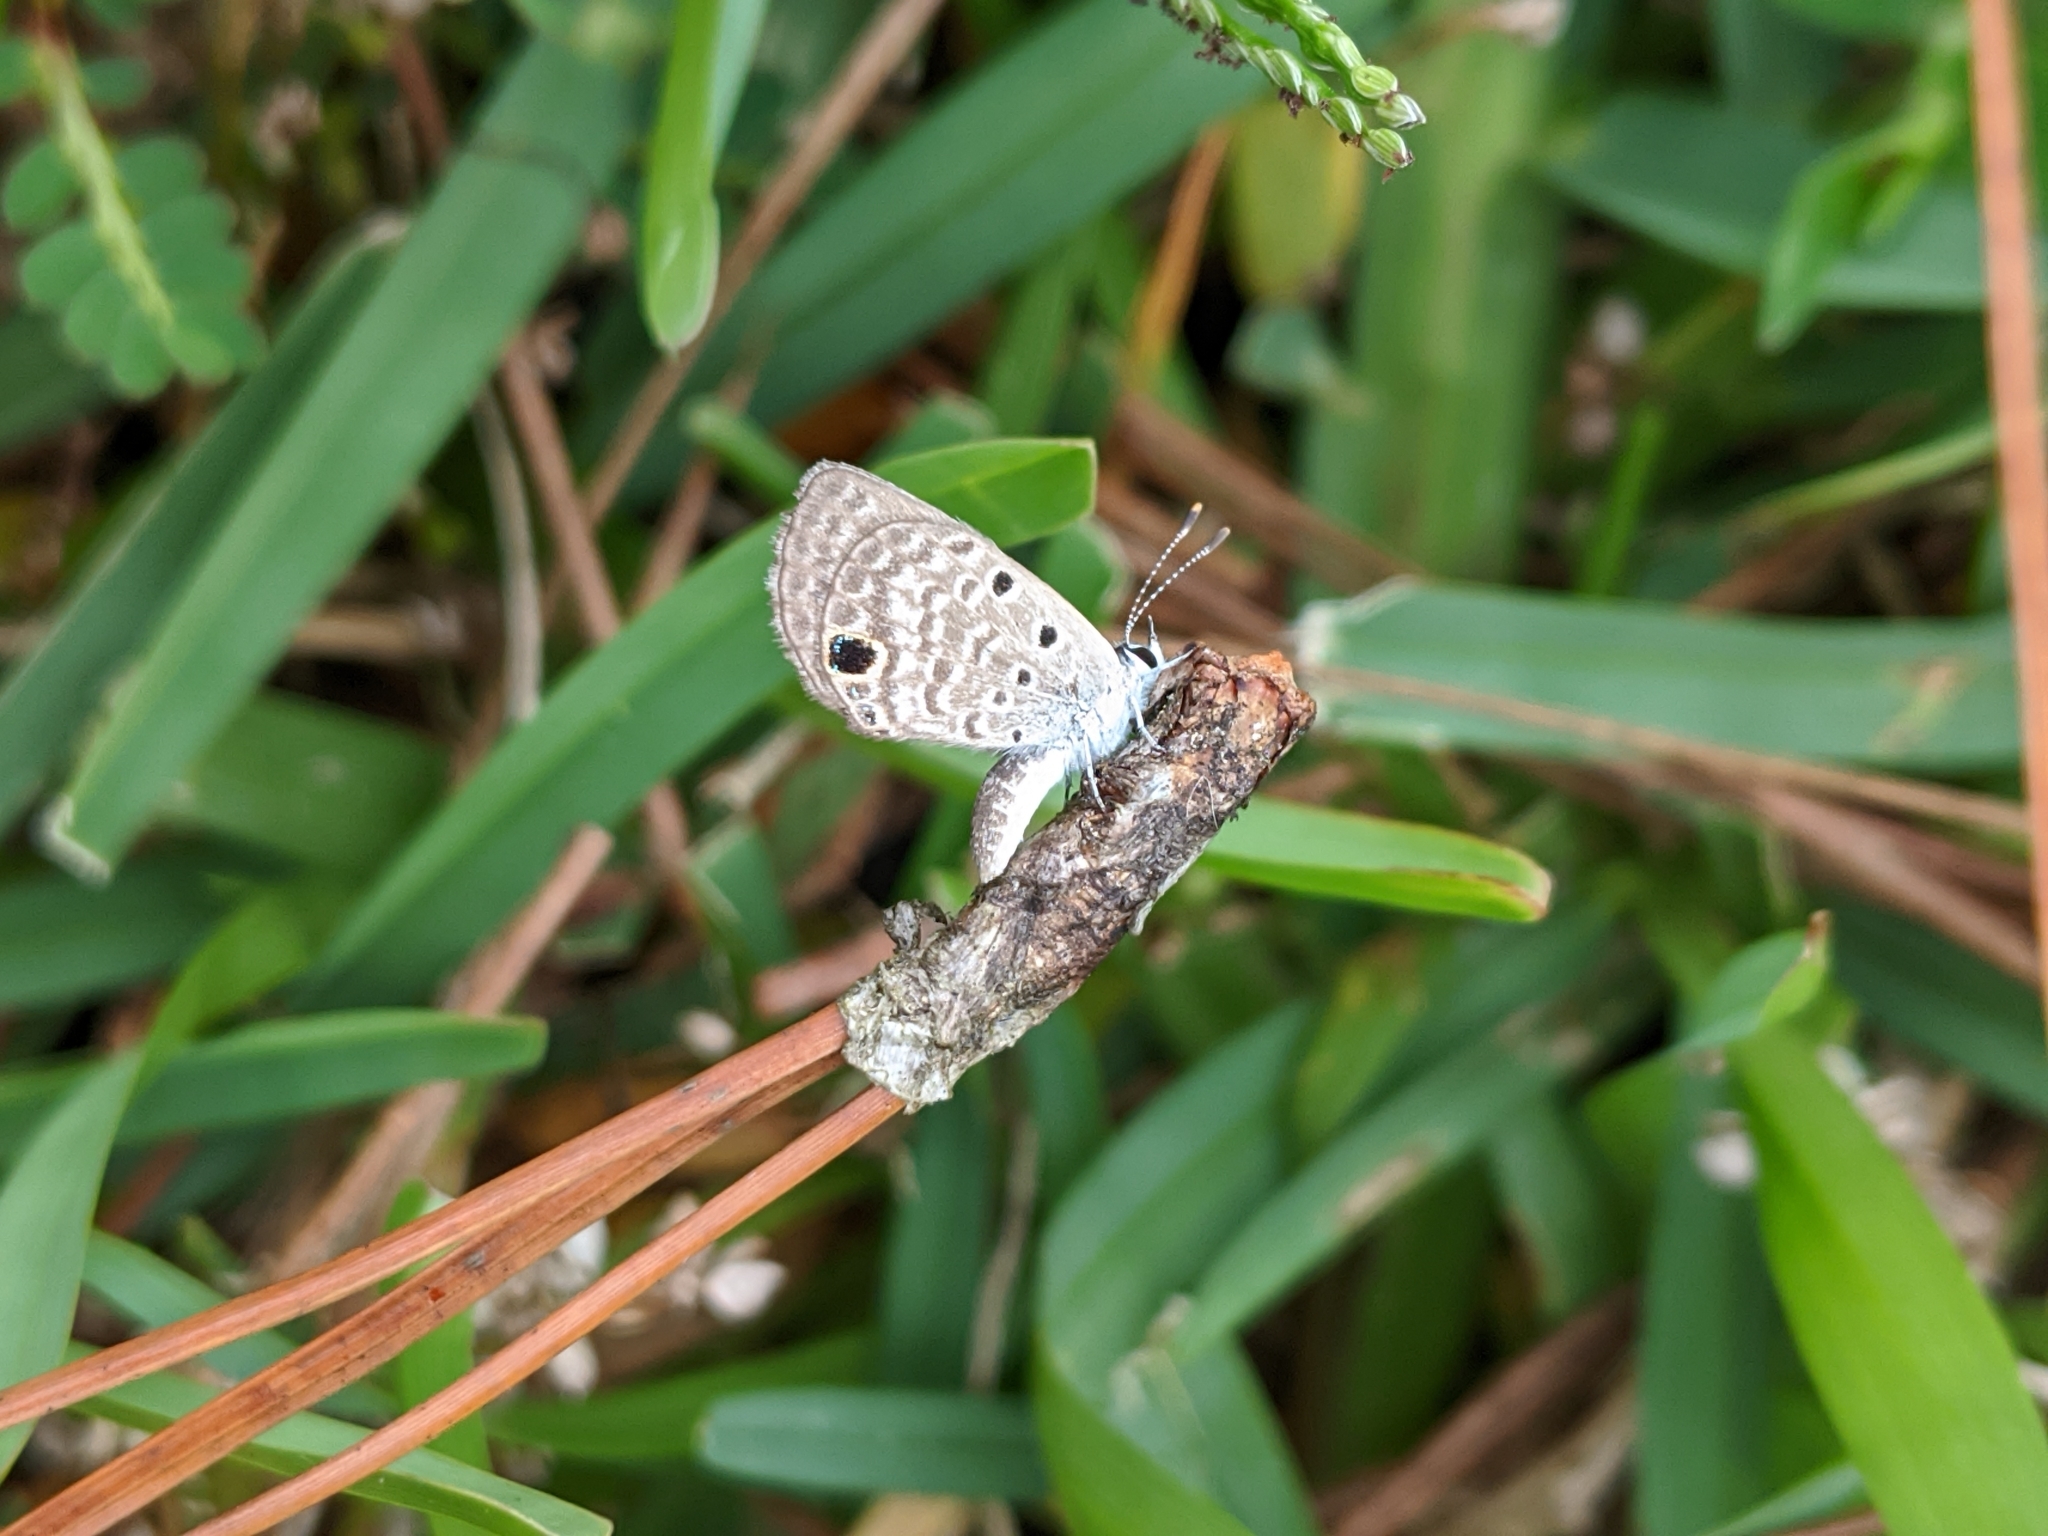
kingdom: Animalia
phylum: Arthropoda
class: Insecta
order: Lepidoptera
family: Lycaenidae
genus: Hemiargus
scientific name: Hemiargus ceraunus
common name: Ceraunus blue
